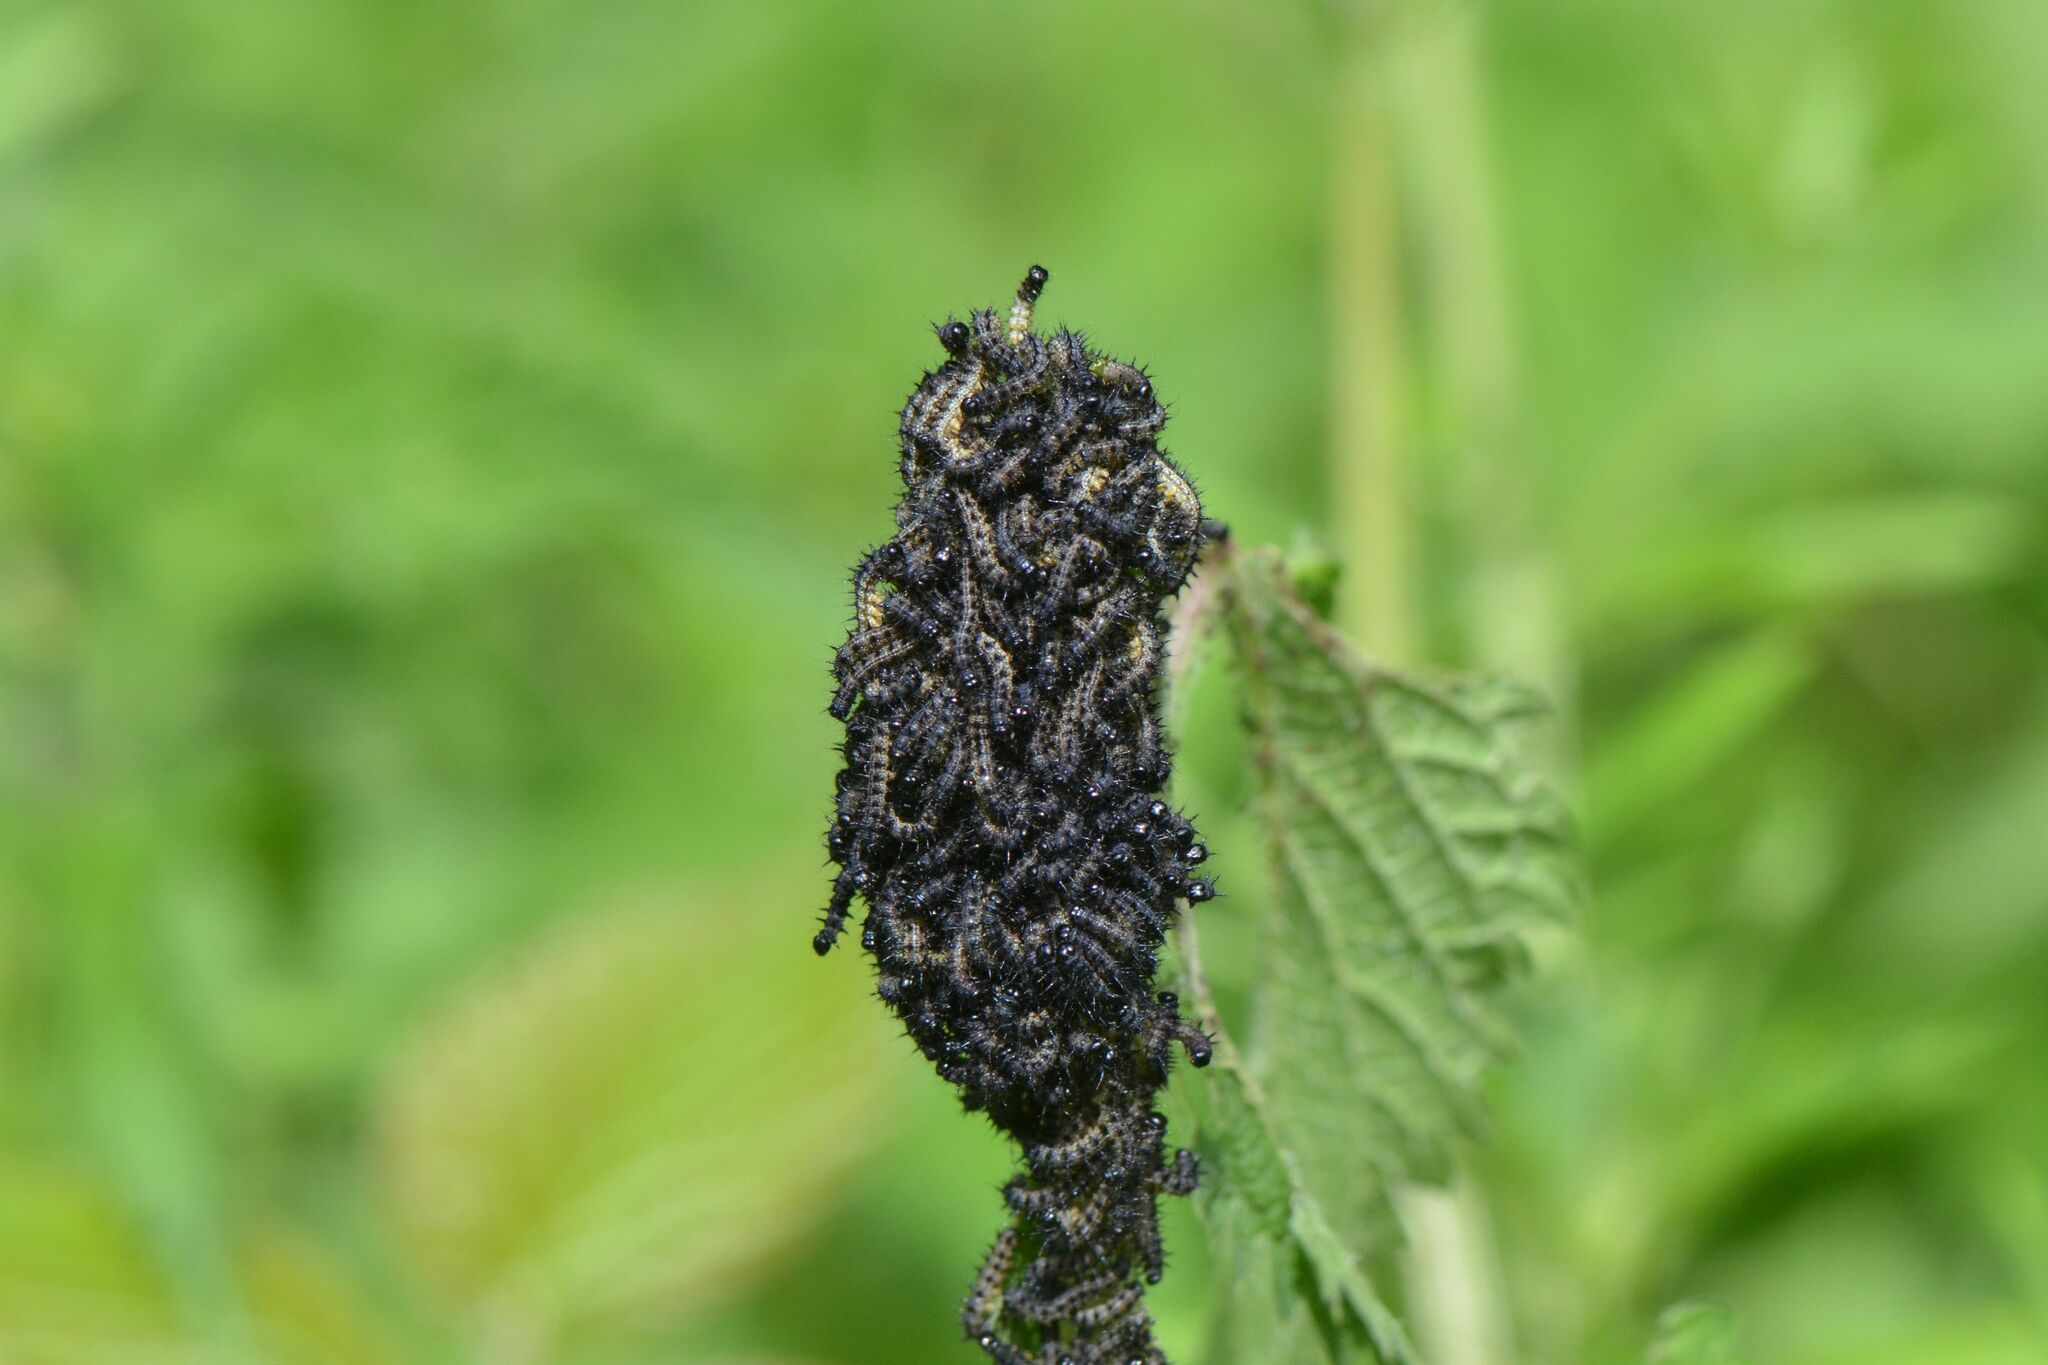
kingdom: Animalia
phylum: Arthropoda
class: Insecta
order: Lepidoptera
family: Nymphalidae
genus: Aglais
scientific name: Aglais io
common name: Peacock
